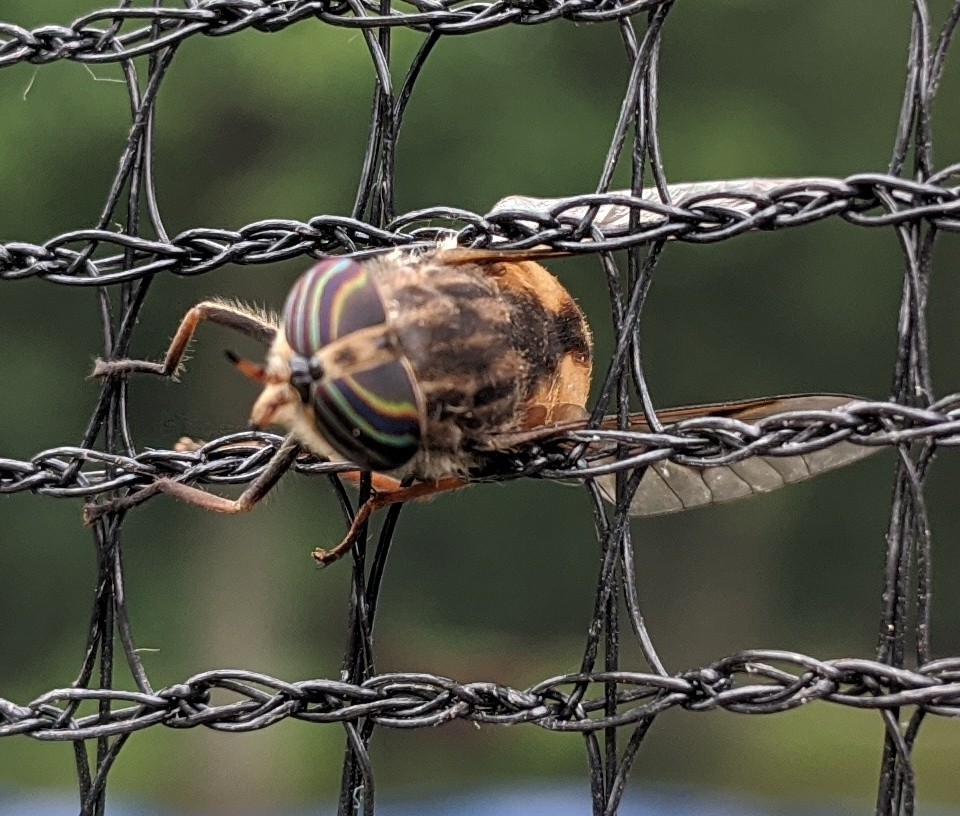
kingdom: Animalia
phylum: Arthropoda
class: Insecta
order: Diptera
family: Tabanidae
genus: Hybomitra
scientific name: Hybomitra lasiophthalma
